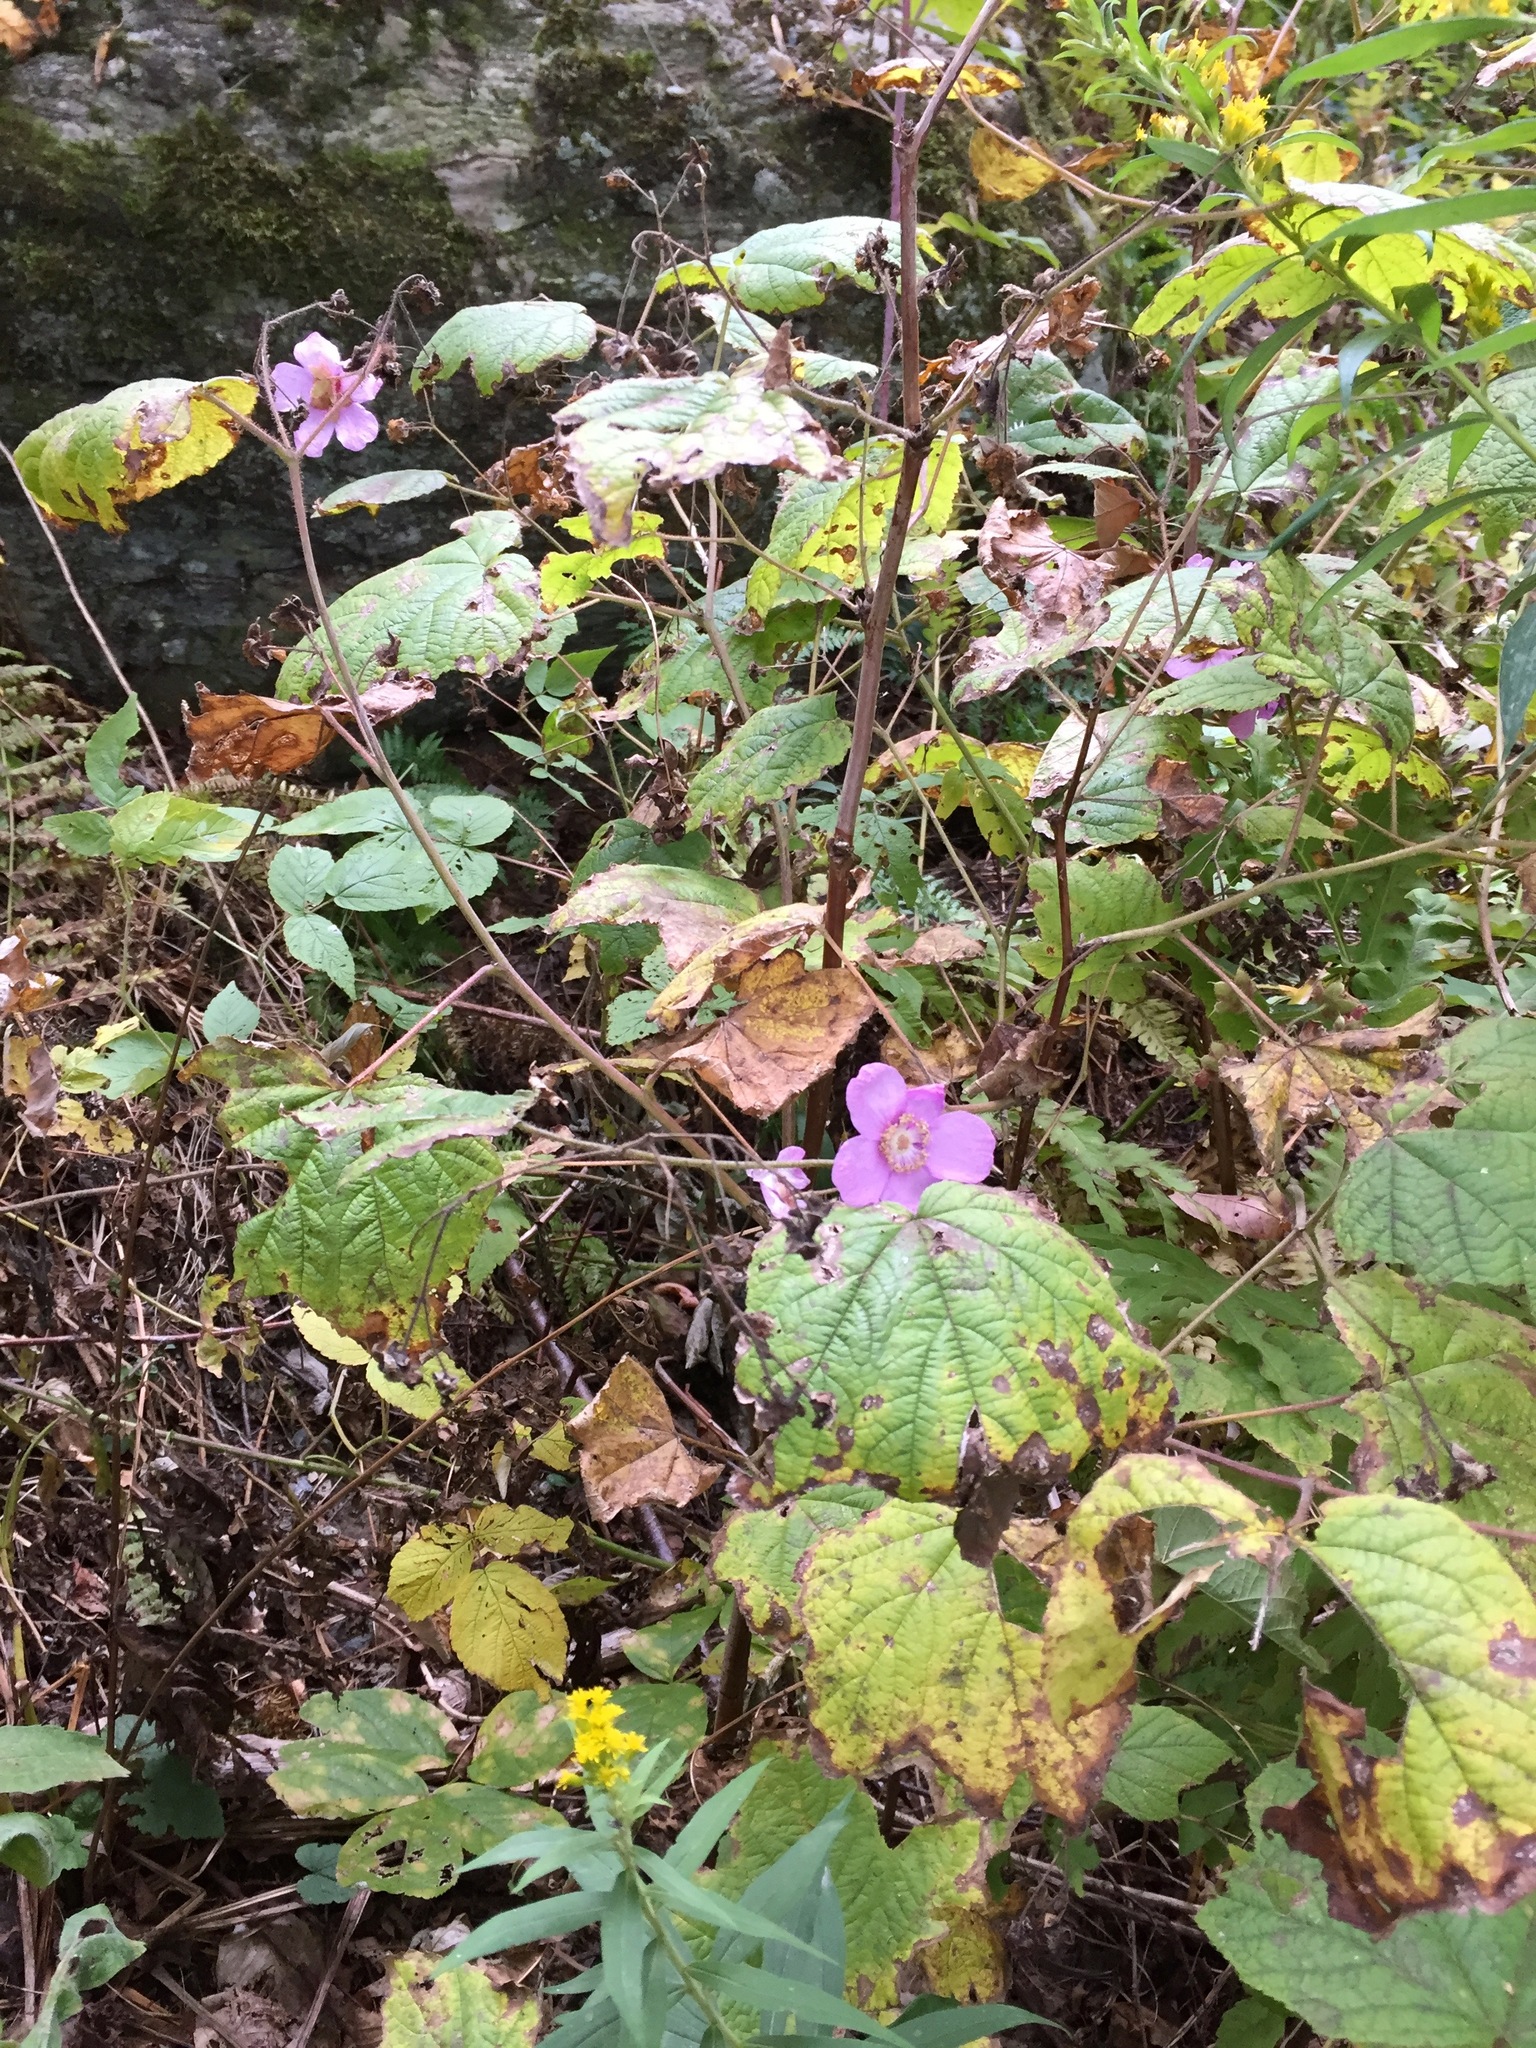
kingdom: Plantae
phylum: Tracheophyta
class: Magnoliopsida
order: Rosales
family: Rosaceae
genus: Rubus
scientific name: Rubus odoratus
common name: Purple-flowered raspberry
